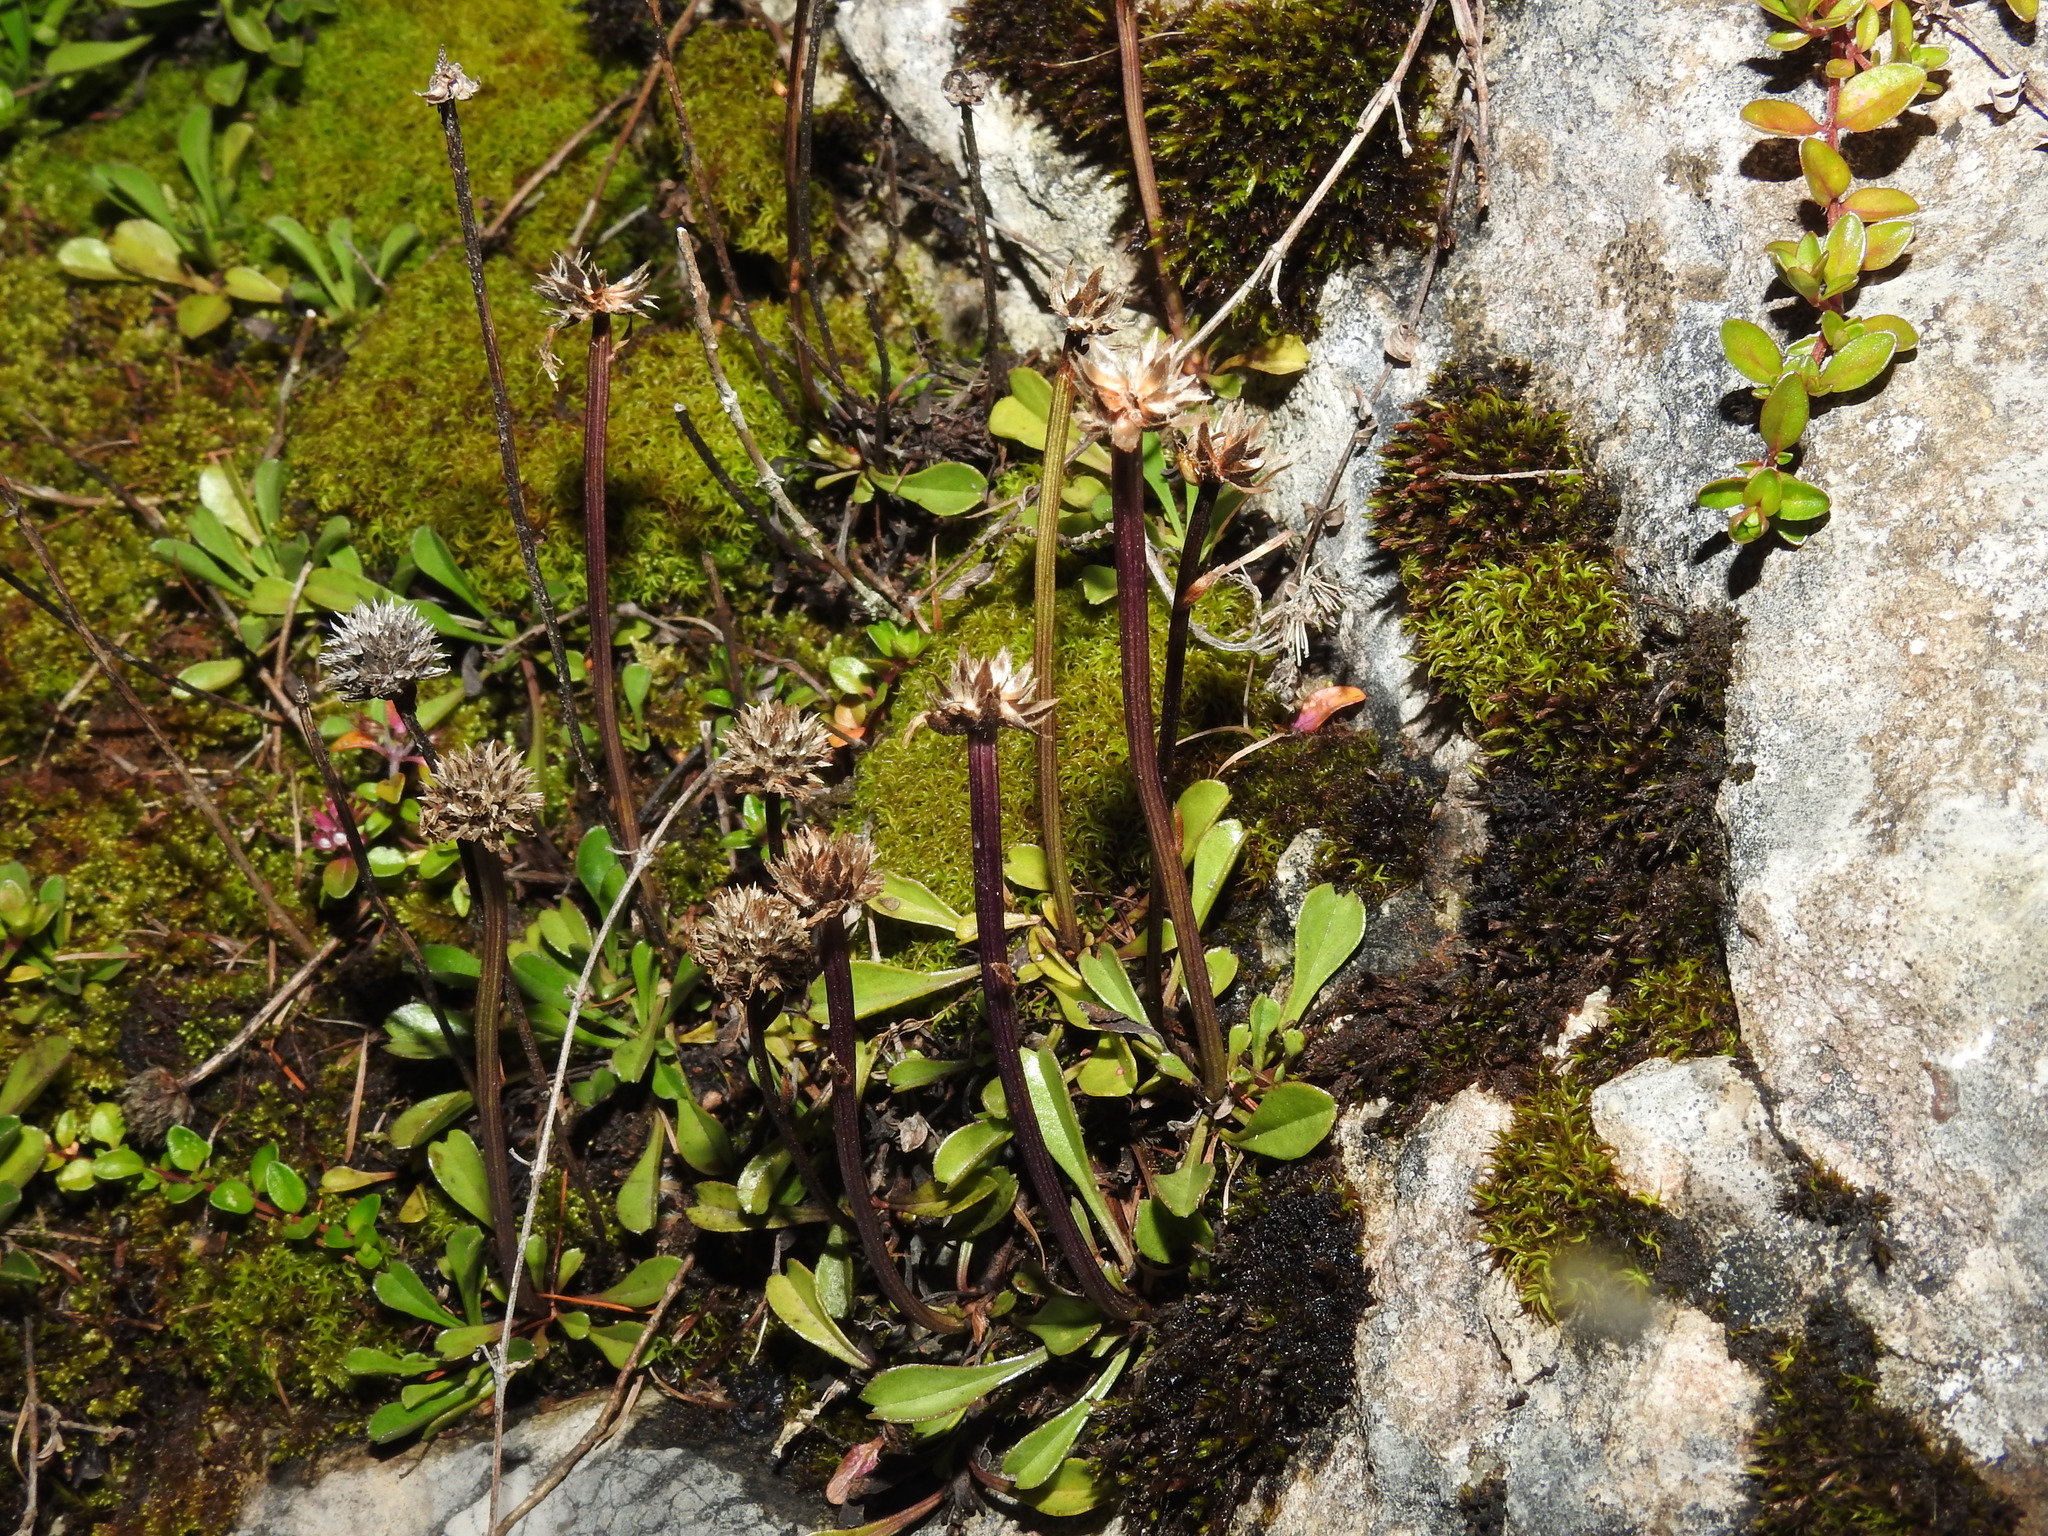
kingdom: Plantae
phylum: Tracheophyta
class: Magnoliopsida
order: Lamiales
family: Plantaginaceae
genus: Globularia
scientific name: Globularia cordifolia
